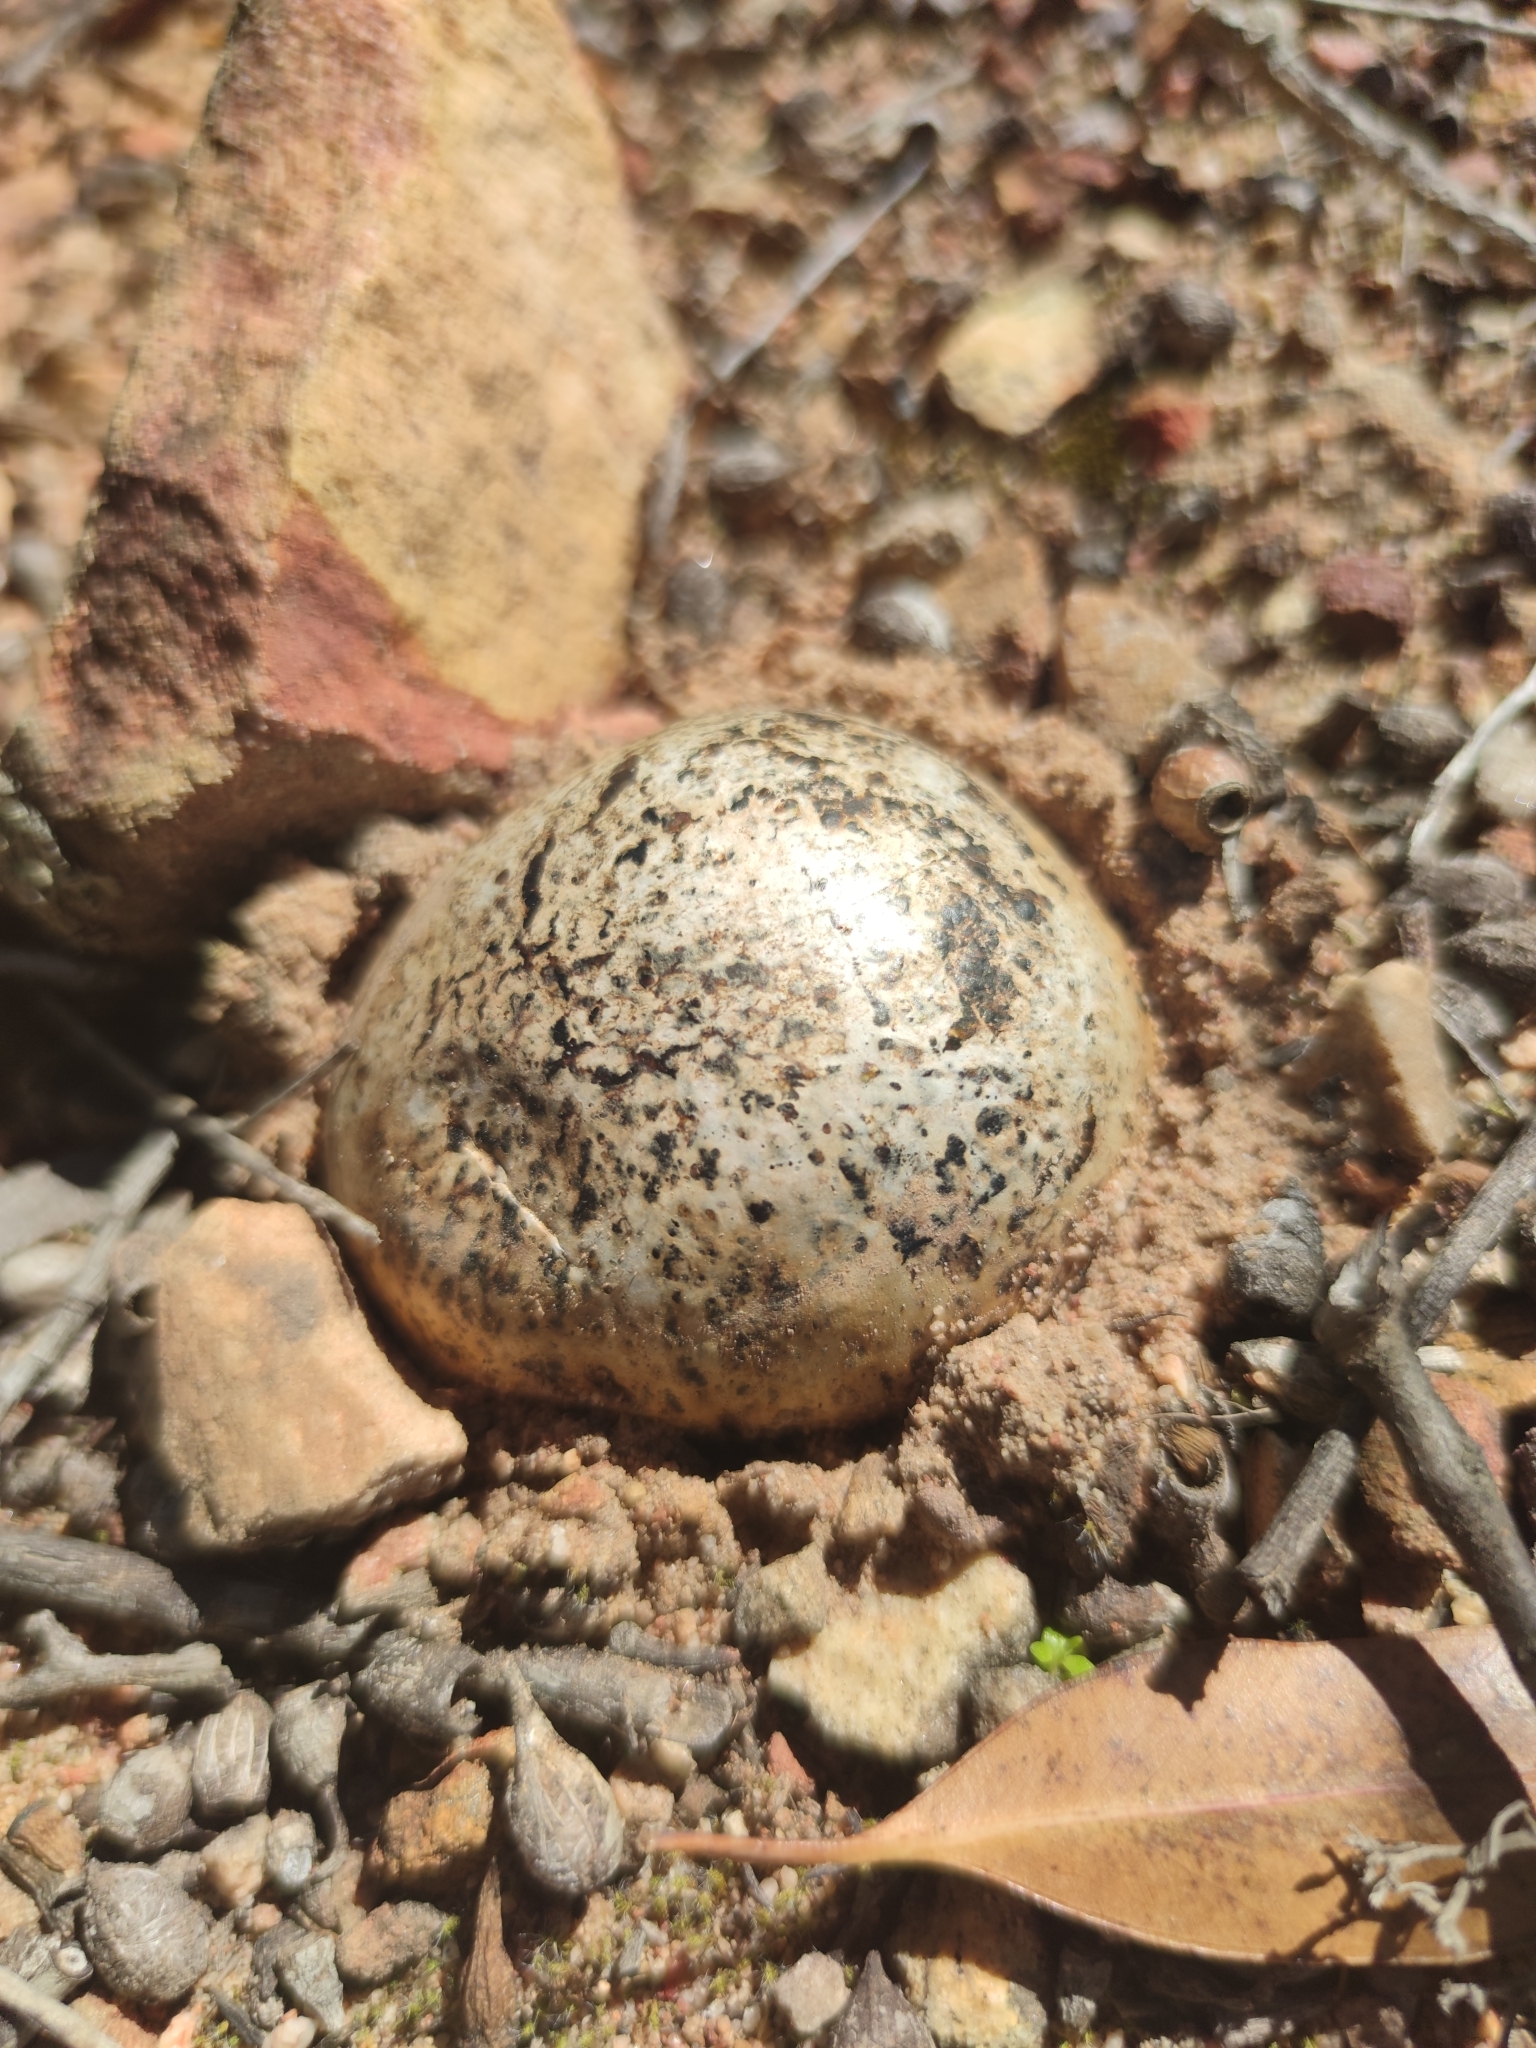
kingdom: Fungi
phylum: Basidiomycota
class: Agaricomycetes
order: Boletales
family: Sclerodermataceae
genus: Pisolithus
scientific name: Pisolithus arhizus
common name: Dyeball
